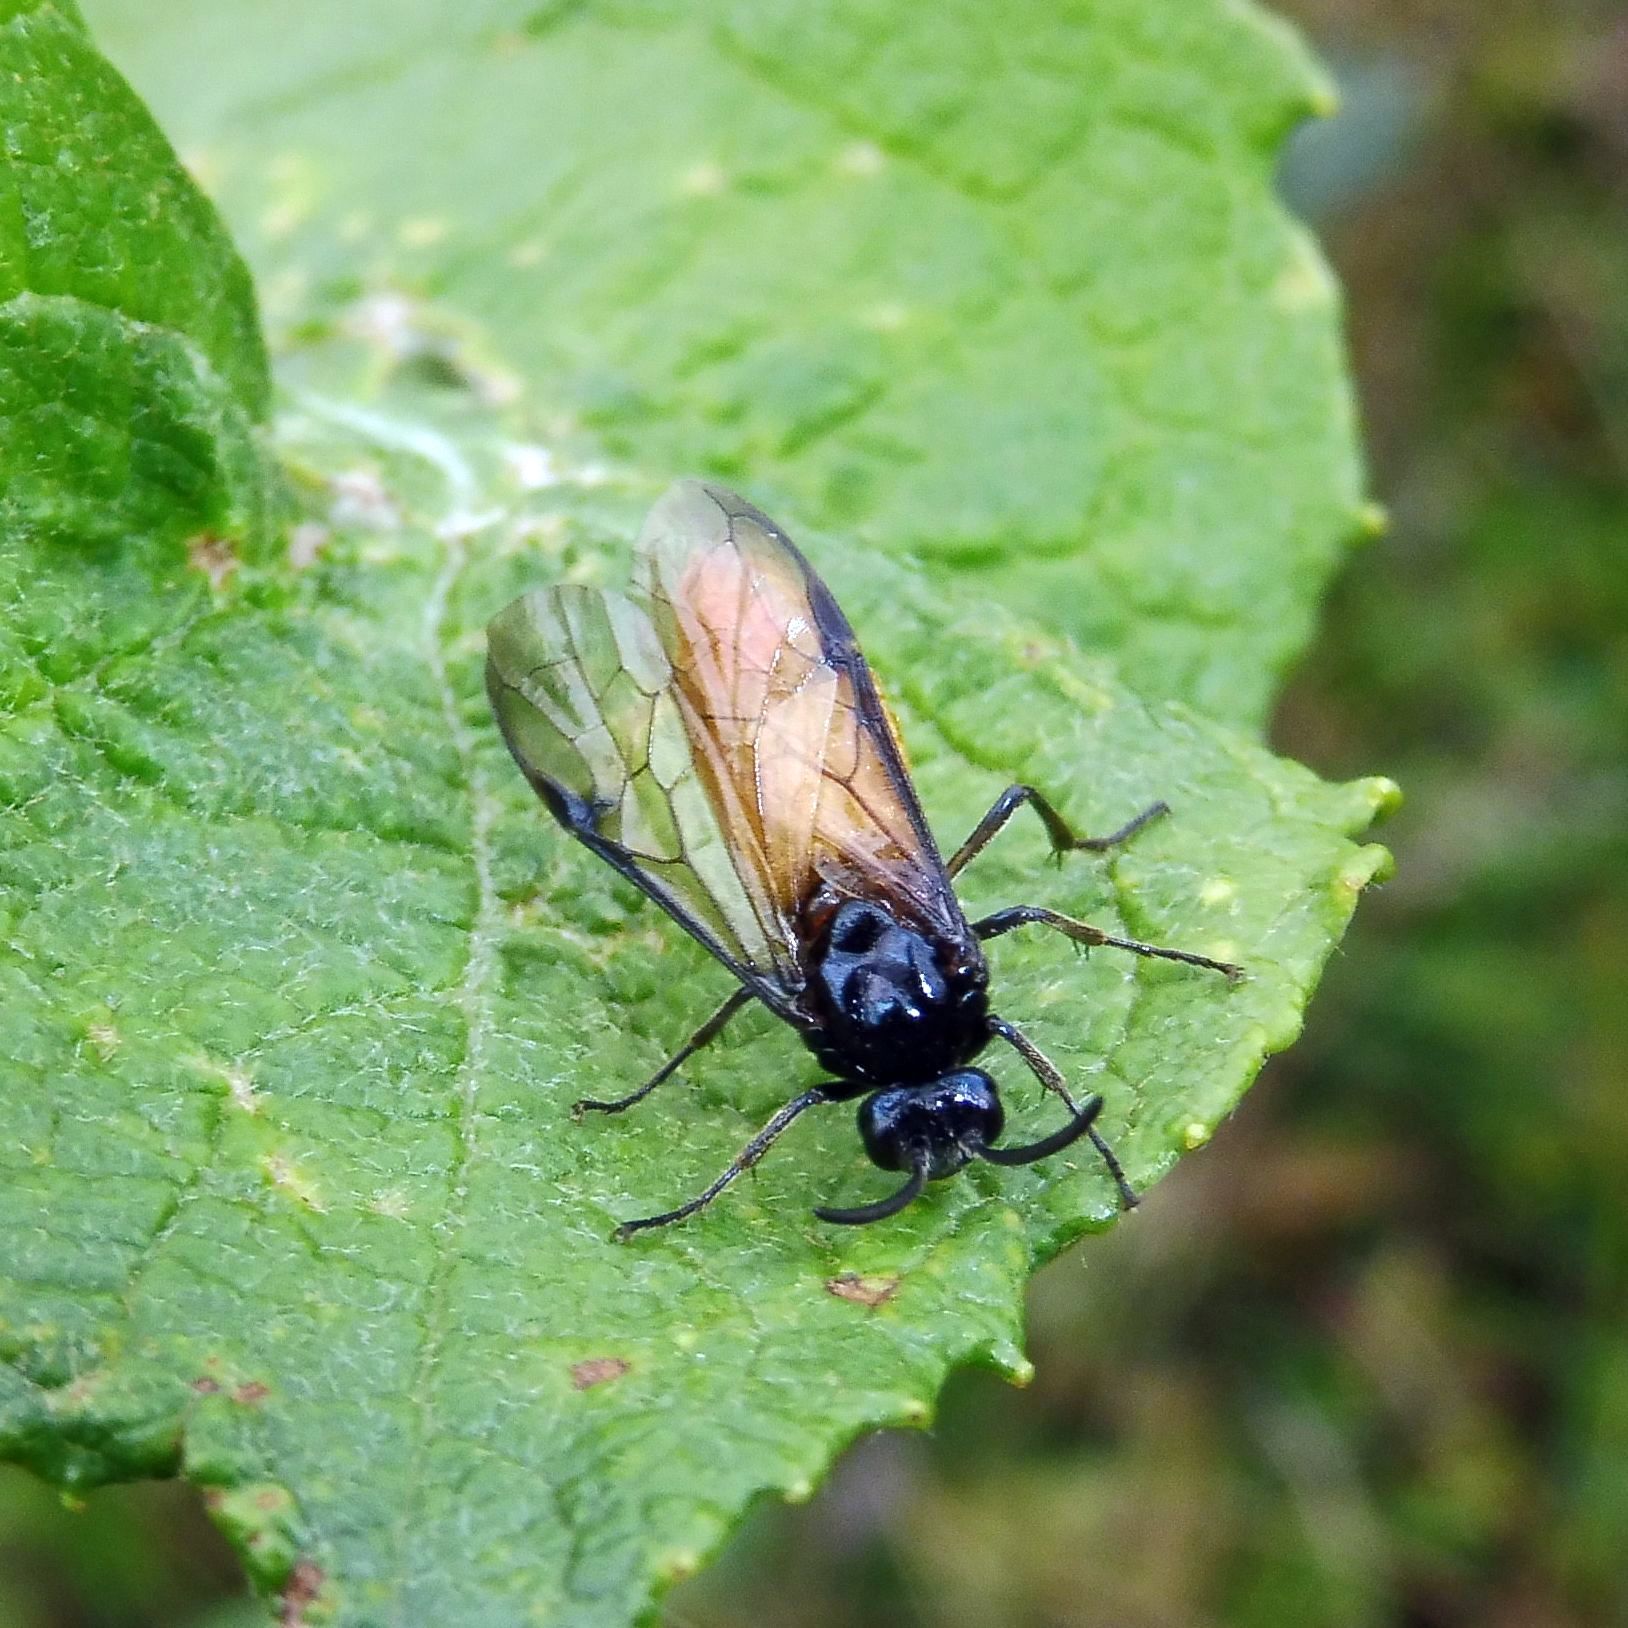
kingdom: Animalia
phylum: Arthropoda
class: Insecta
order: Hymenoptera
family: Argidae
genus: Arge
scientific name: Arge pagana
